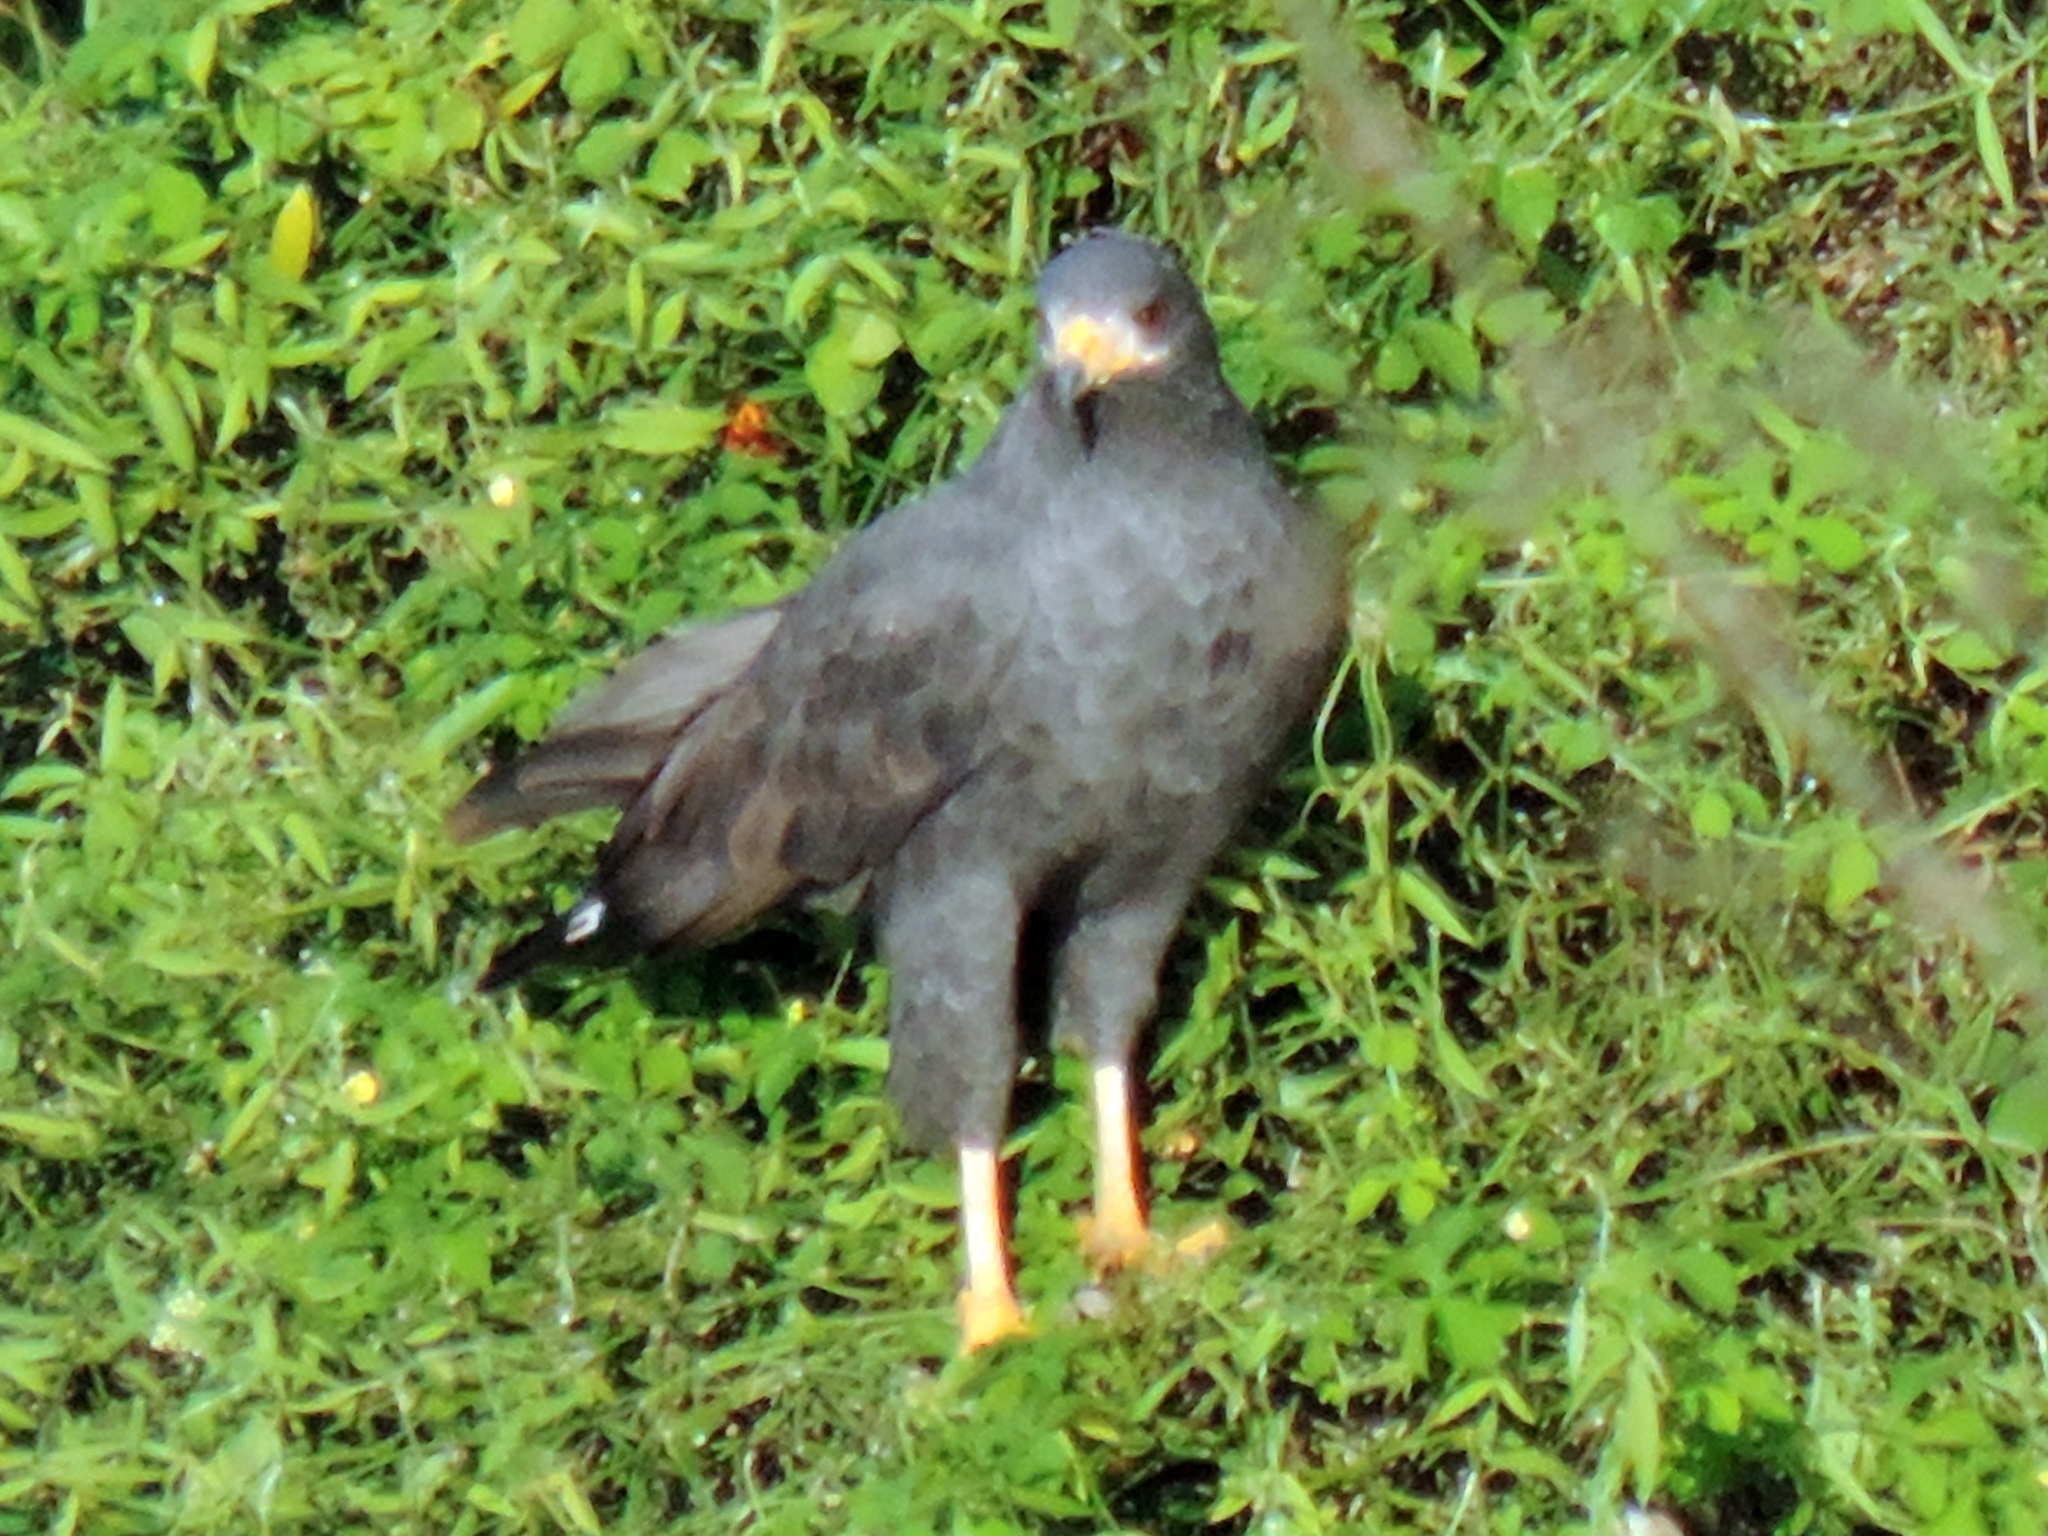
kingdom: Animalia
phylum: Chordata
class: Aves
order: Accipitriformes
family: Accipitridae
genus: Buteogallus
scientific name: Buteogallus anthracinus
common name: Common black hawk
